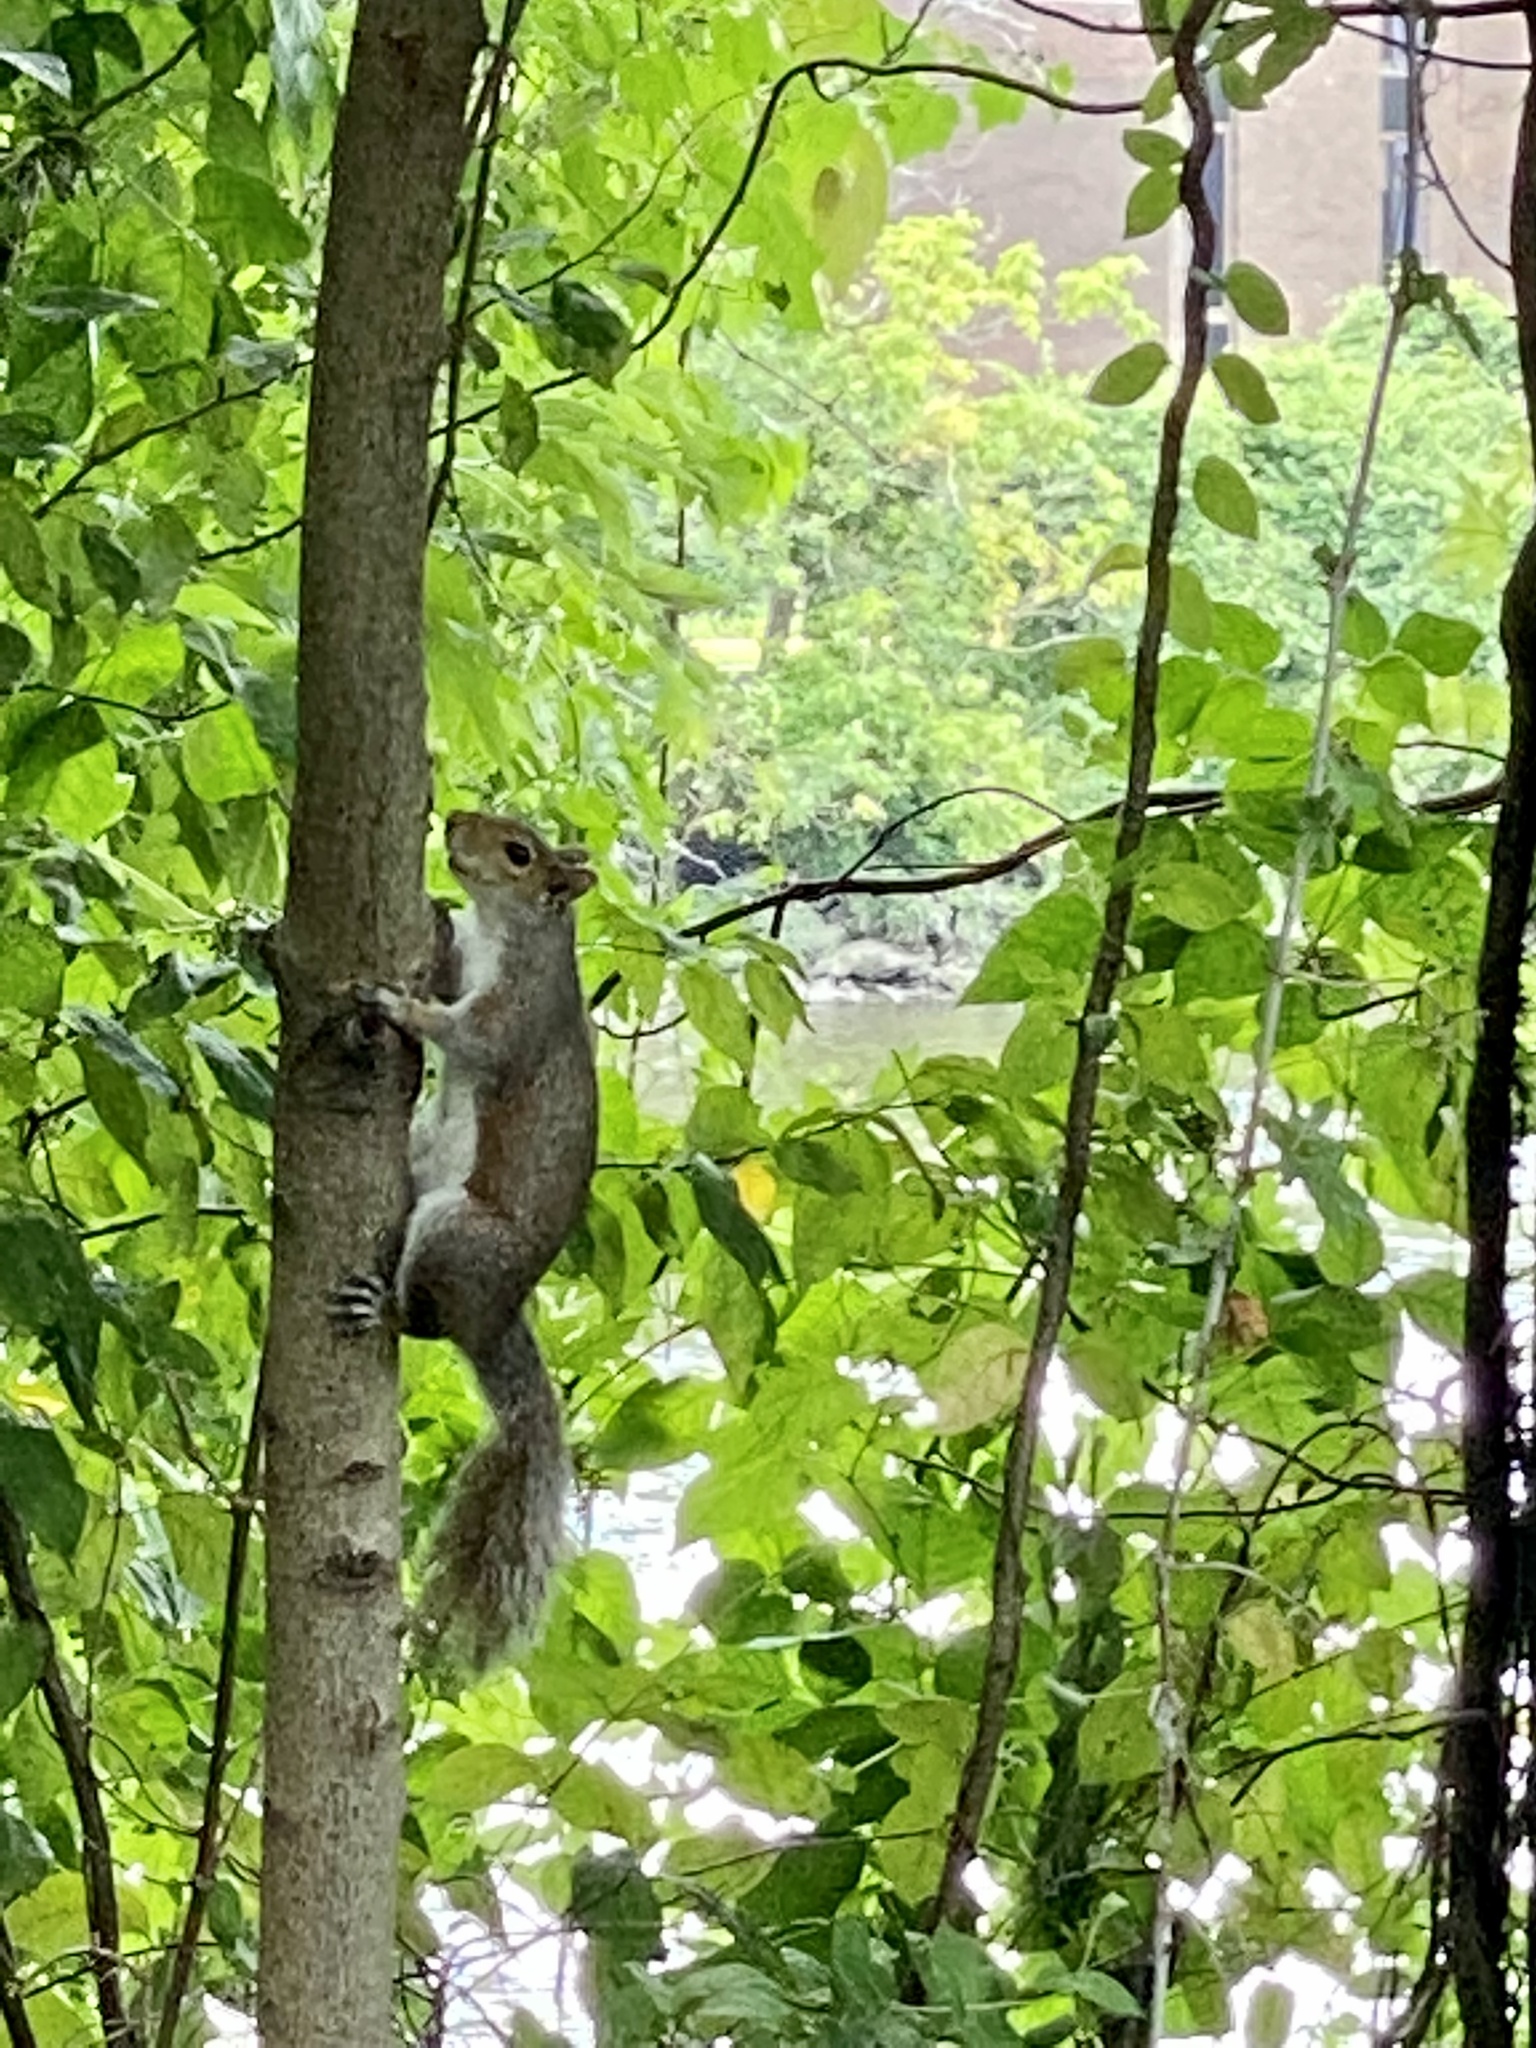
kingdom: Animalia
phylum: Chordata
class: Mammalia
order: Rodentia
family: Sciuridae
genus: Sciurus
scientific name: Sciurus carolinensis
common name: Eastern gray squirrel
